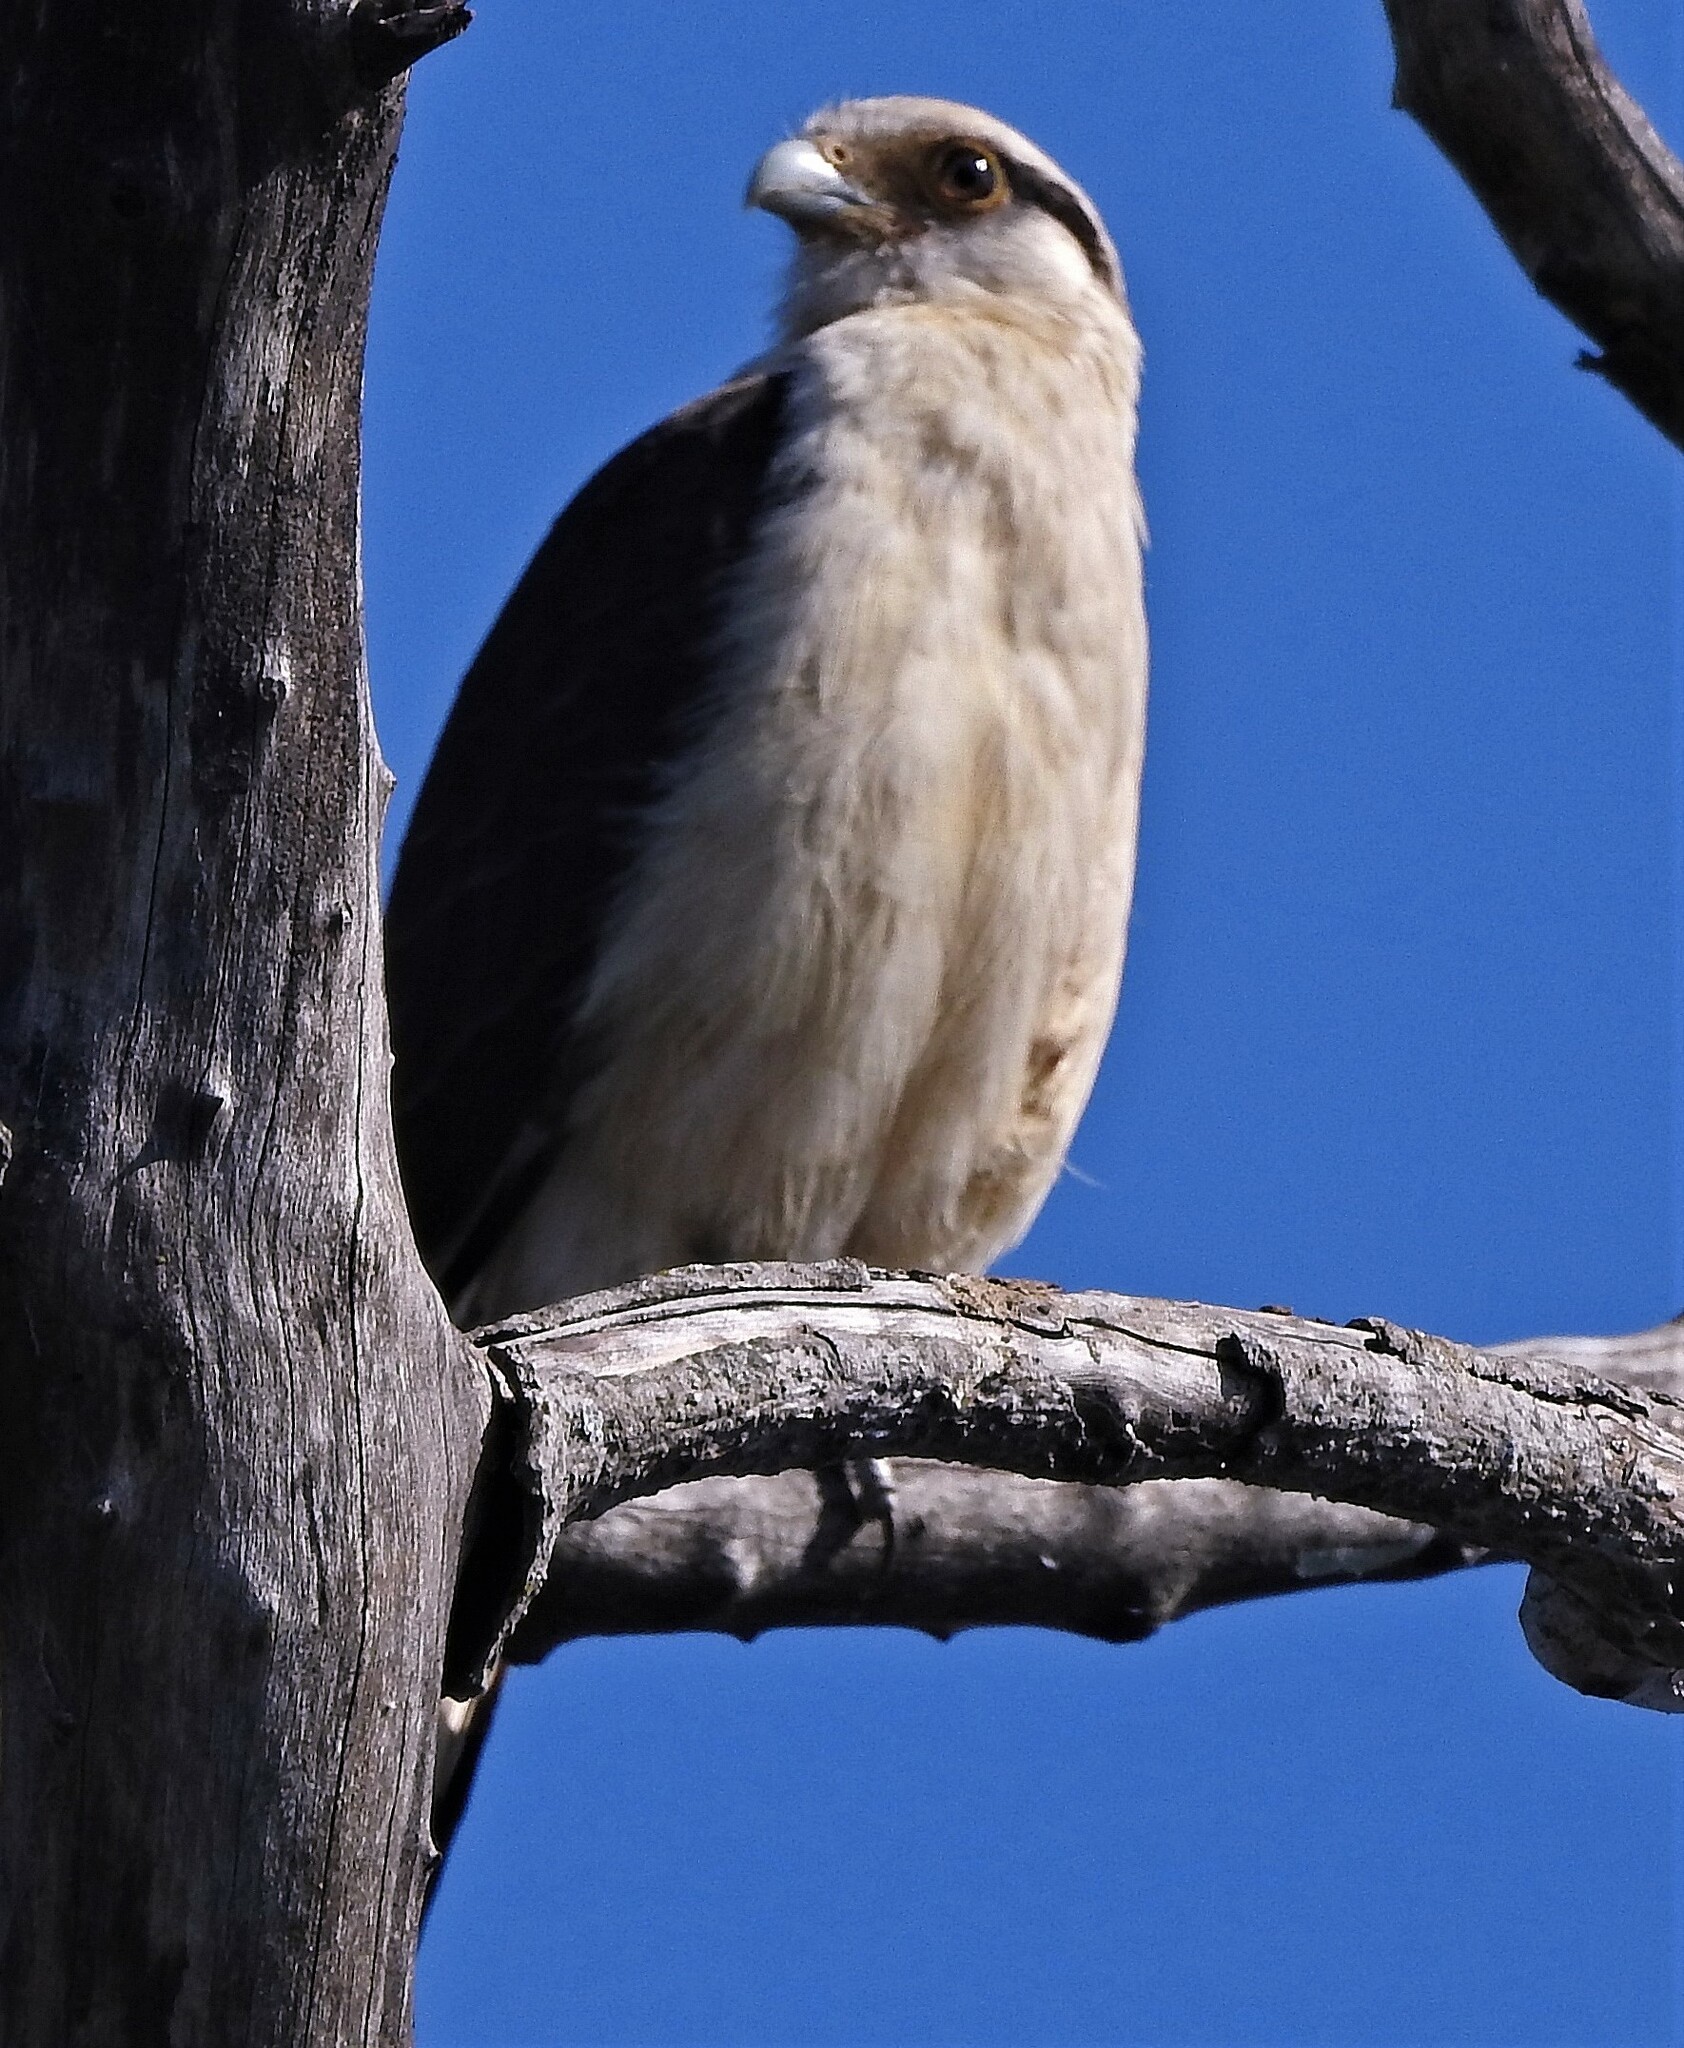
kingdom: Animalia
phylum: Chordata
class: Aves
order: Falconiformes
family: Falconidae
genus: Daptrius
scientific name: Daptrius
